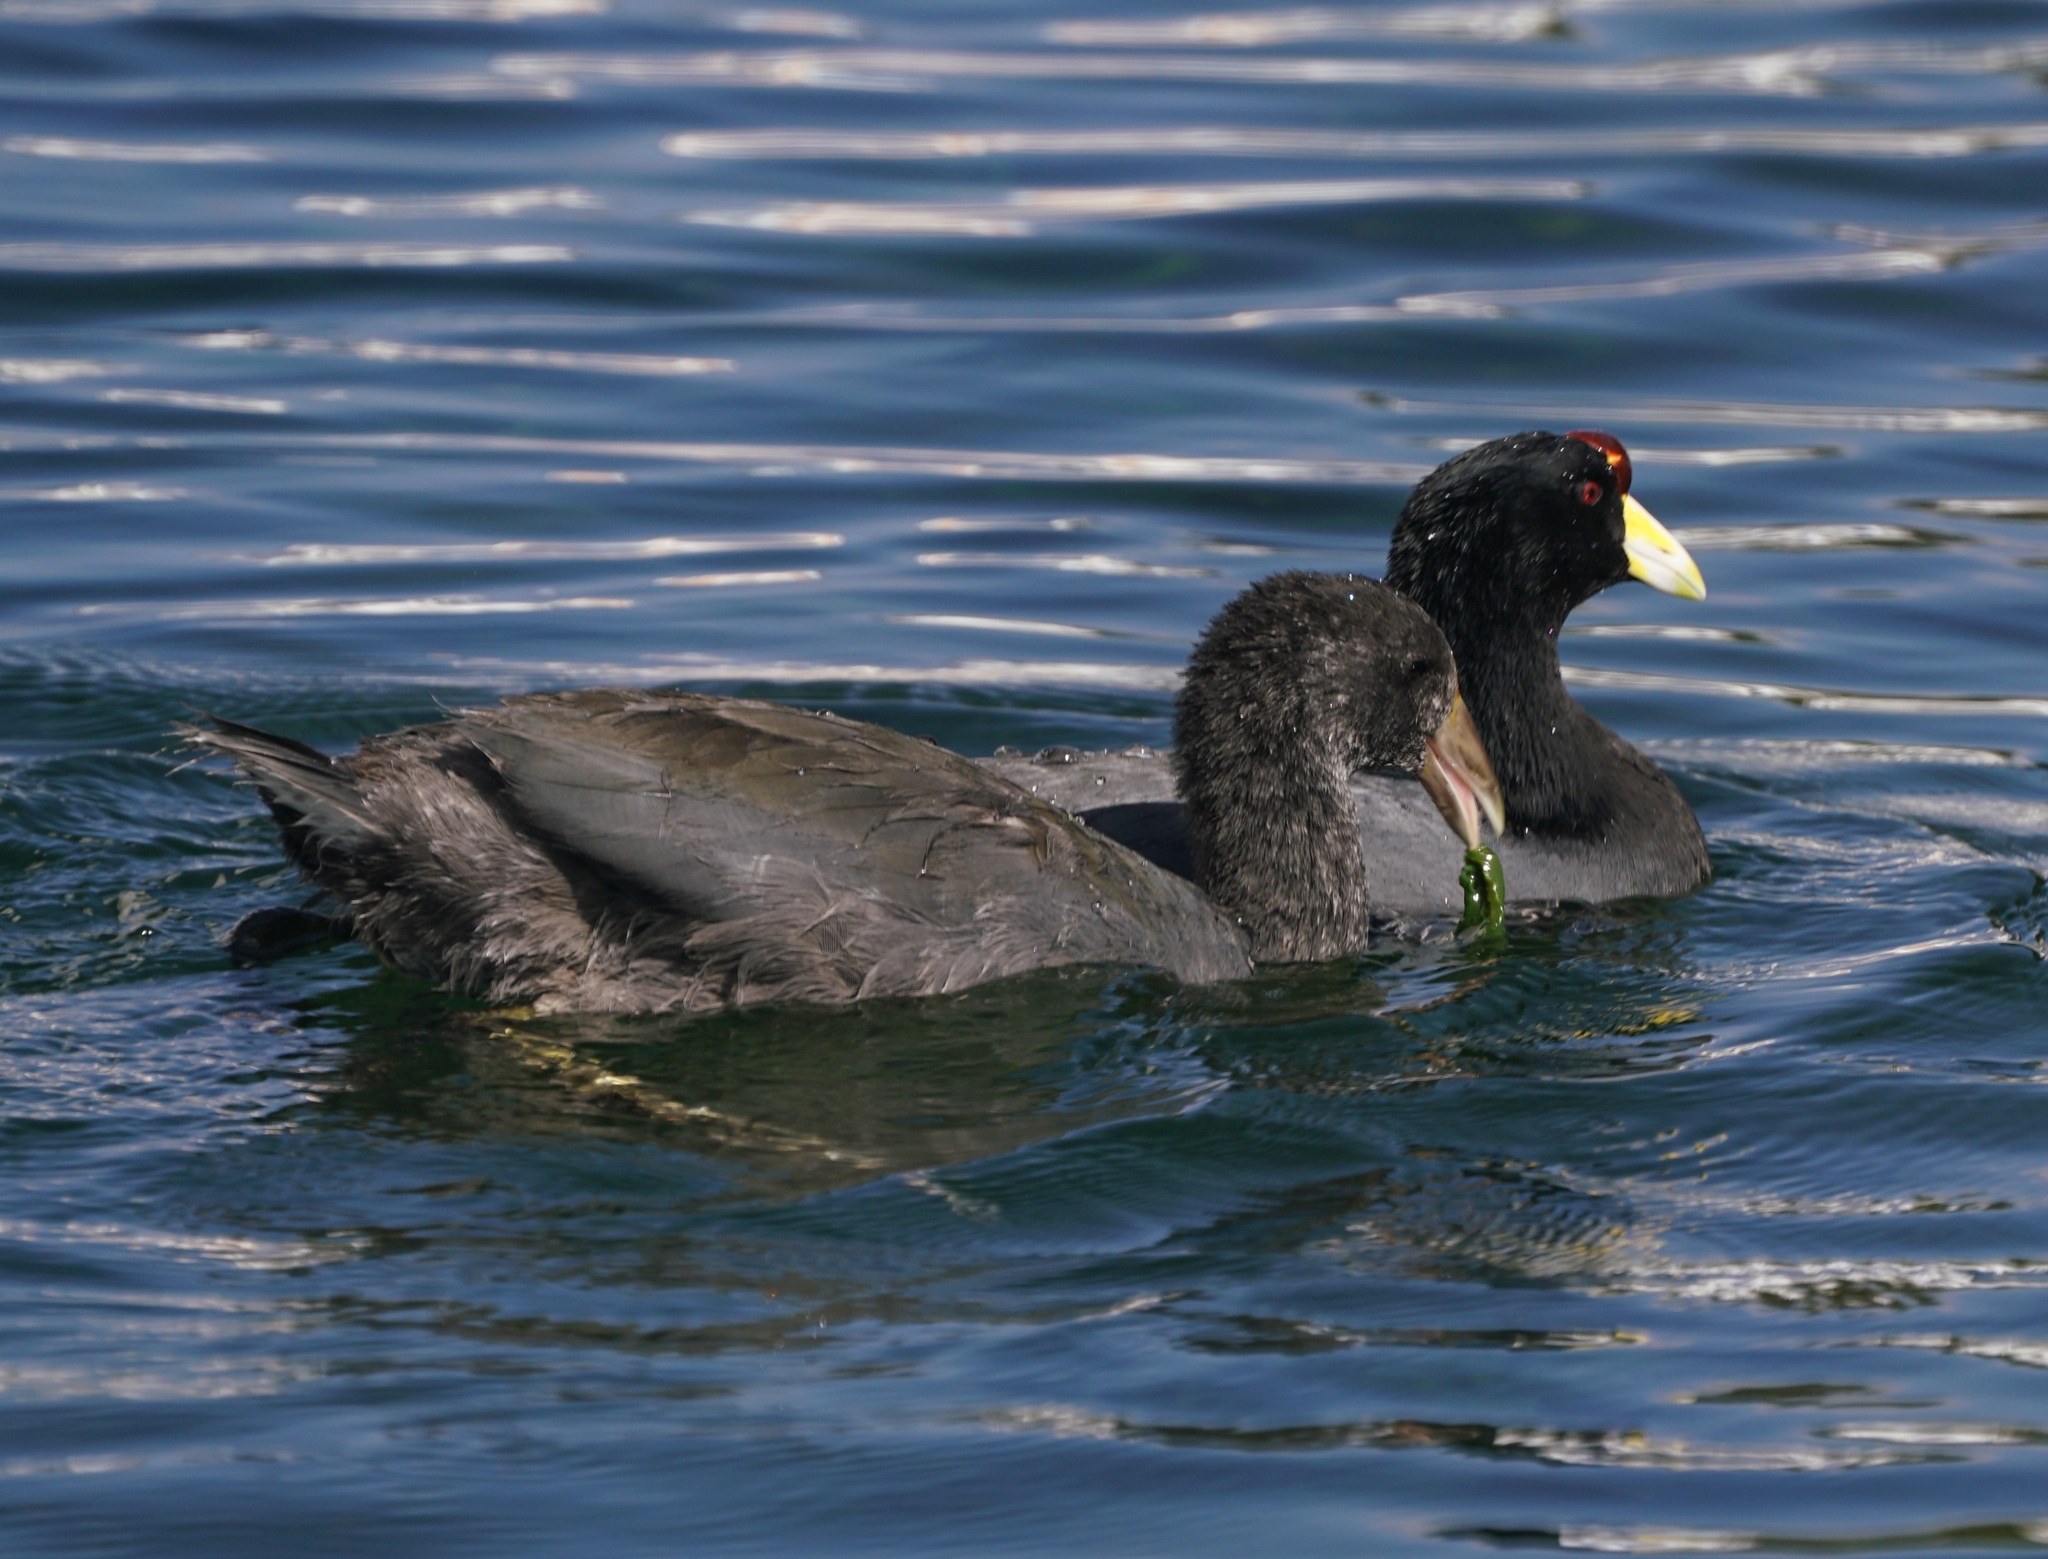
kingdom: Animalia
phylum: Chordata
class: Aves
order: Gruiformes
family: Rallidae
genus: Fulica
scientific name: Fulica ardesiaca
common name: Andean coot
